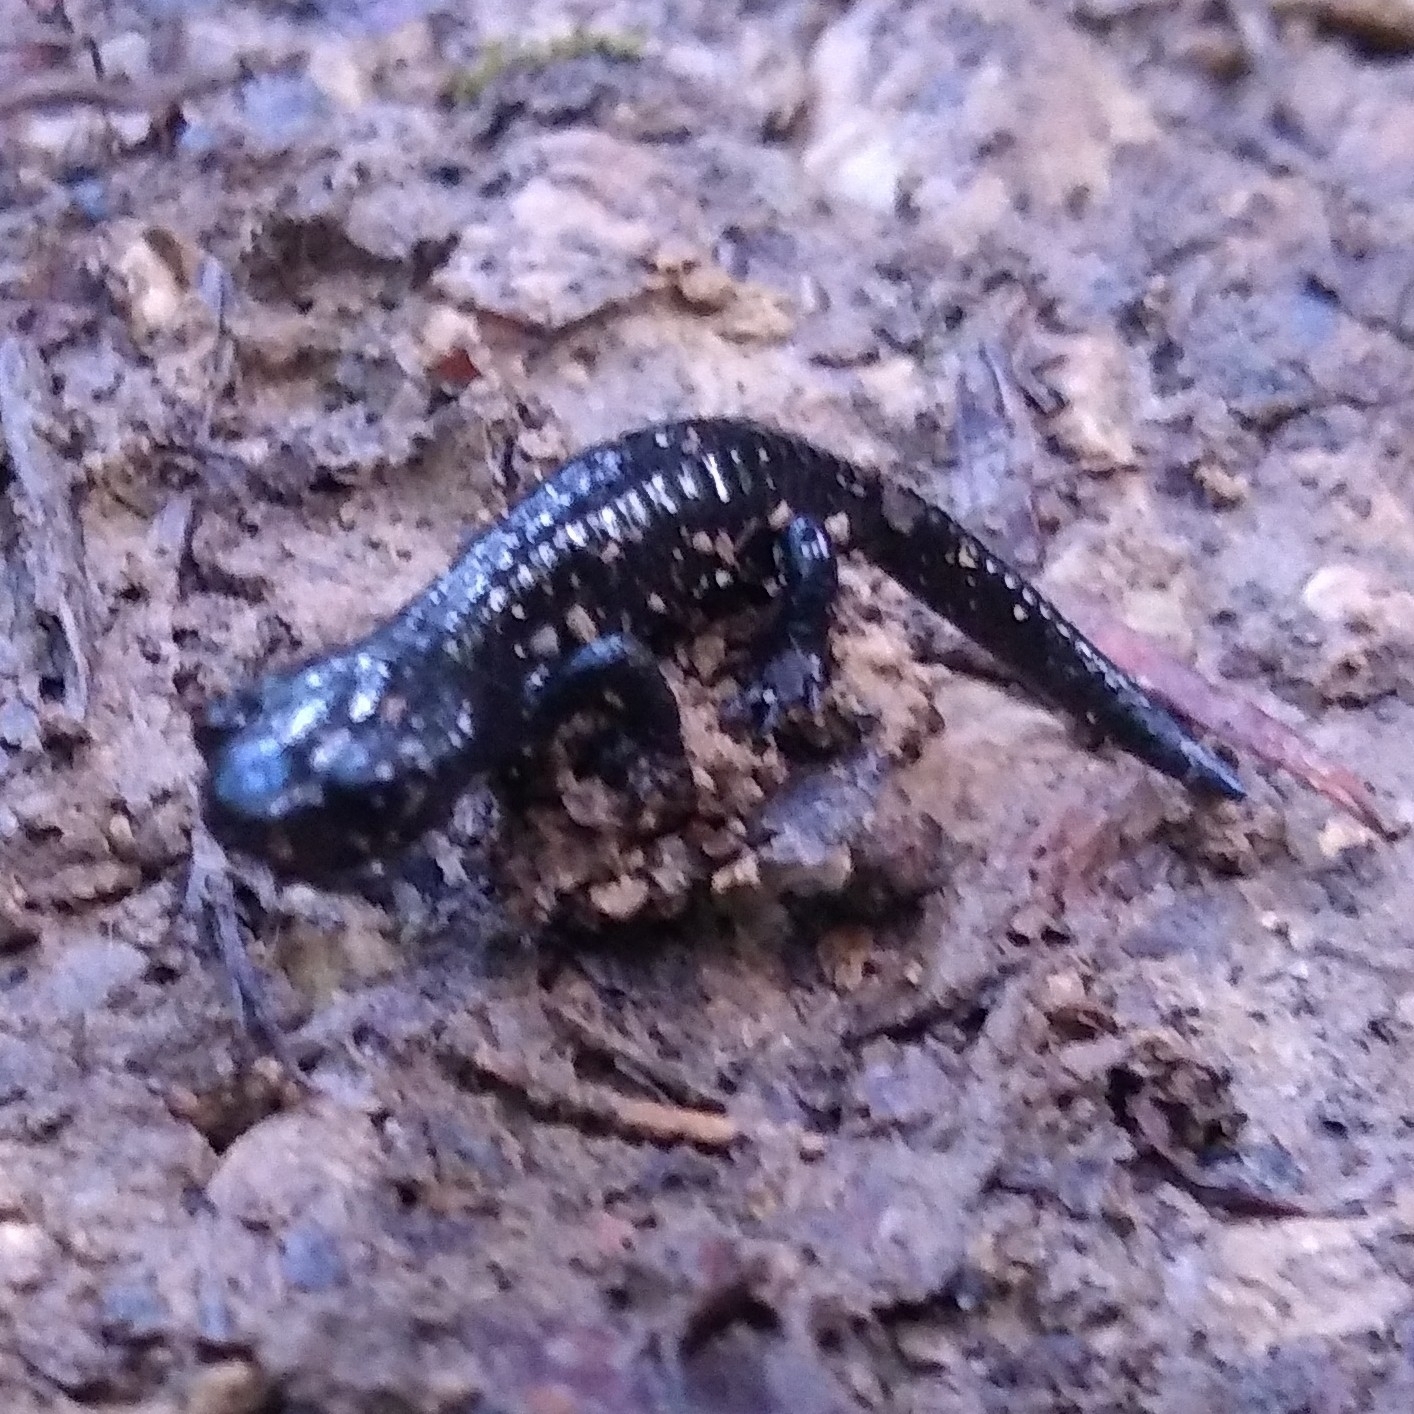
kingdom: Animalia
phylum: Chordata
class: Amphibia
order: Caudata
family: Salamandridae
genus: Salamandra
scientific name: Salamandra atra
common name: Alpine salamander
